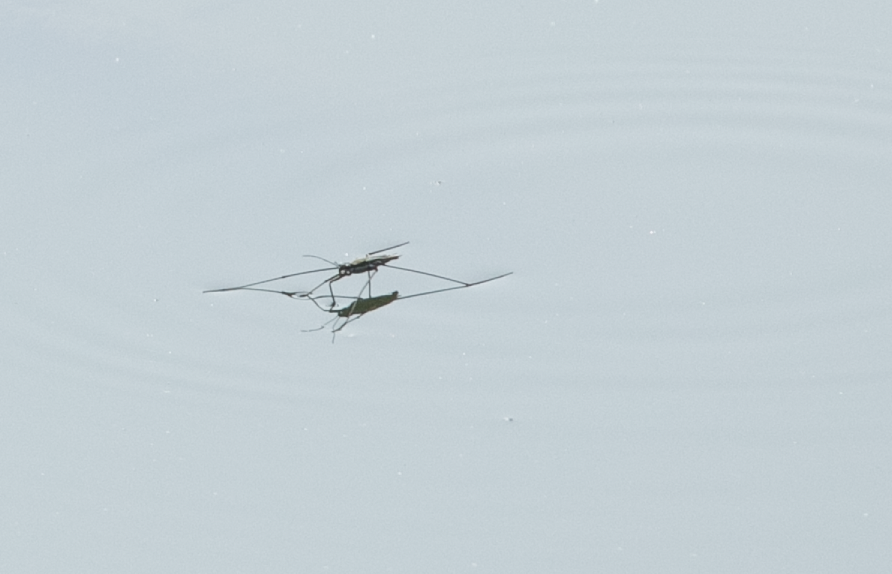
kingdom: Animalia
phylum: Arthropoda
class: Insecta
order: Hemiptera
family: Gerridae
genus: Aquarius
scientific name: Aquarius paludum
